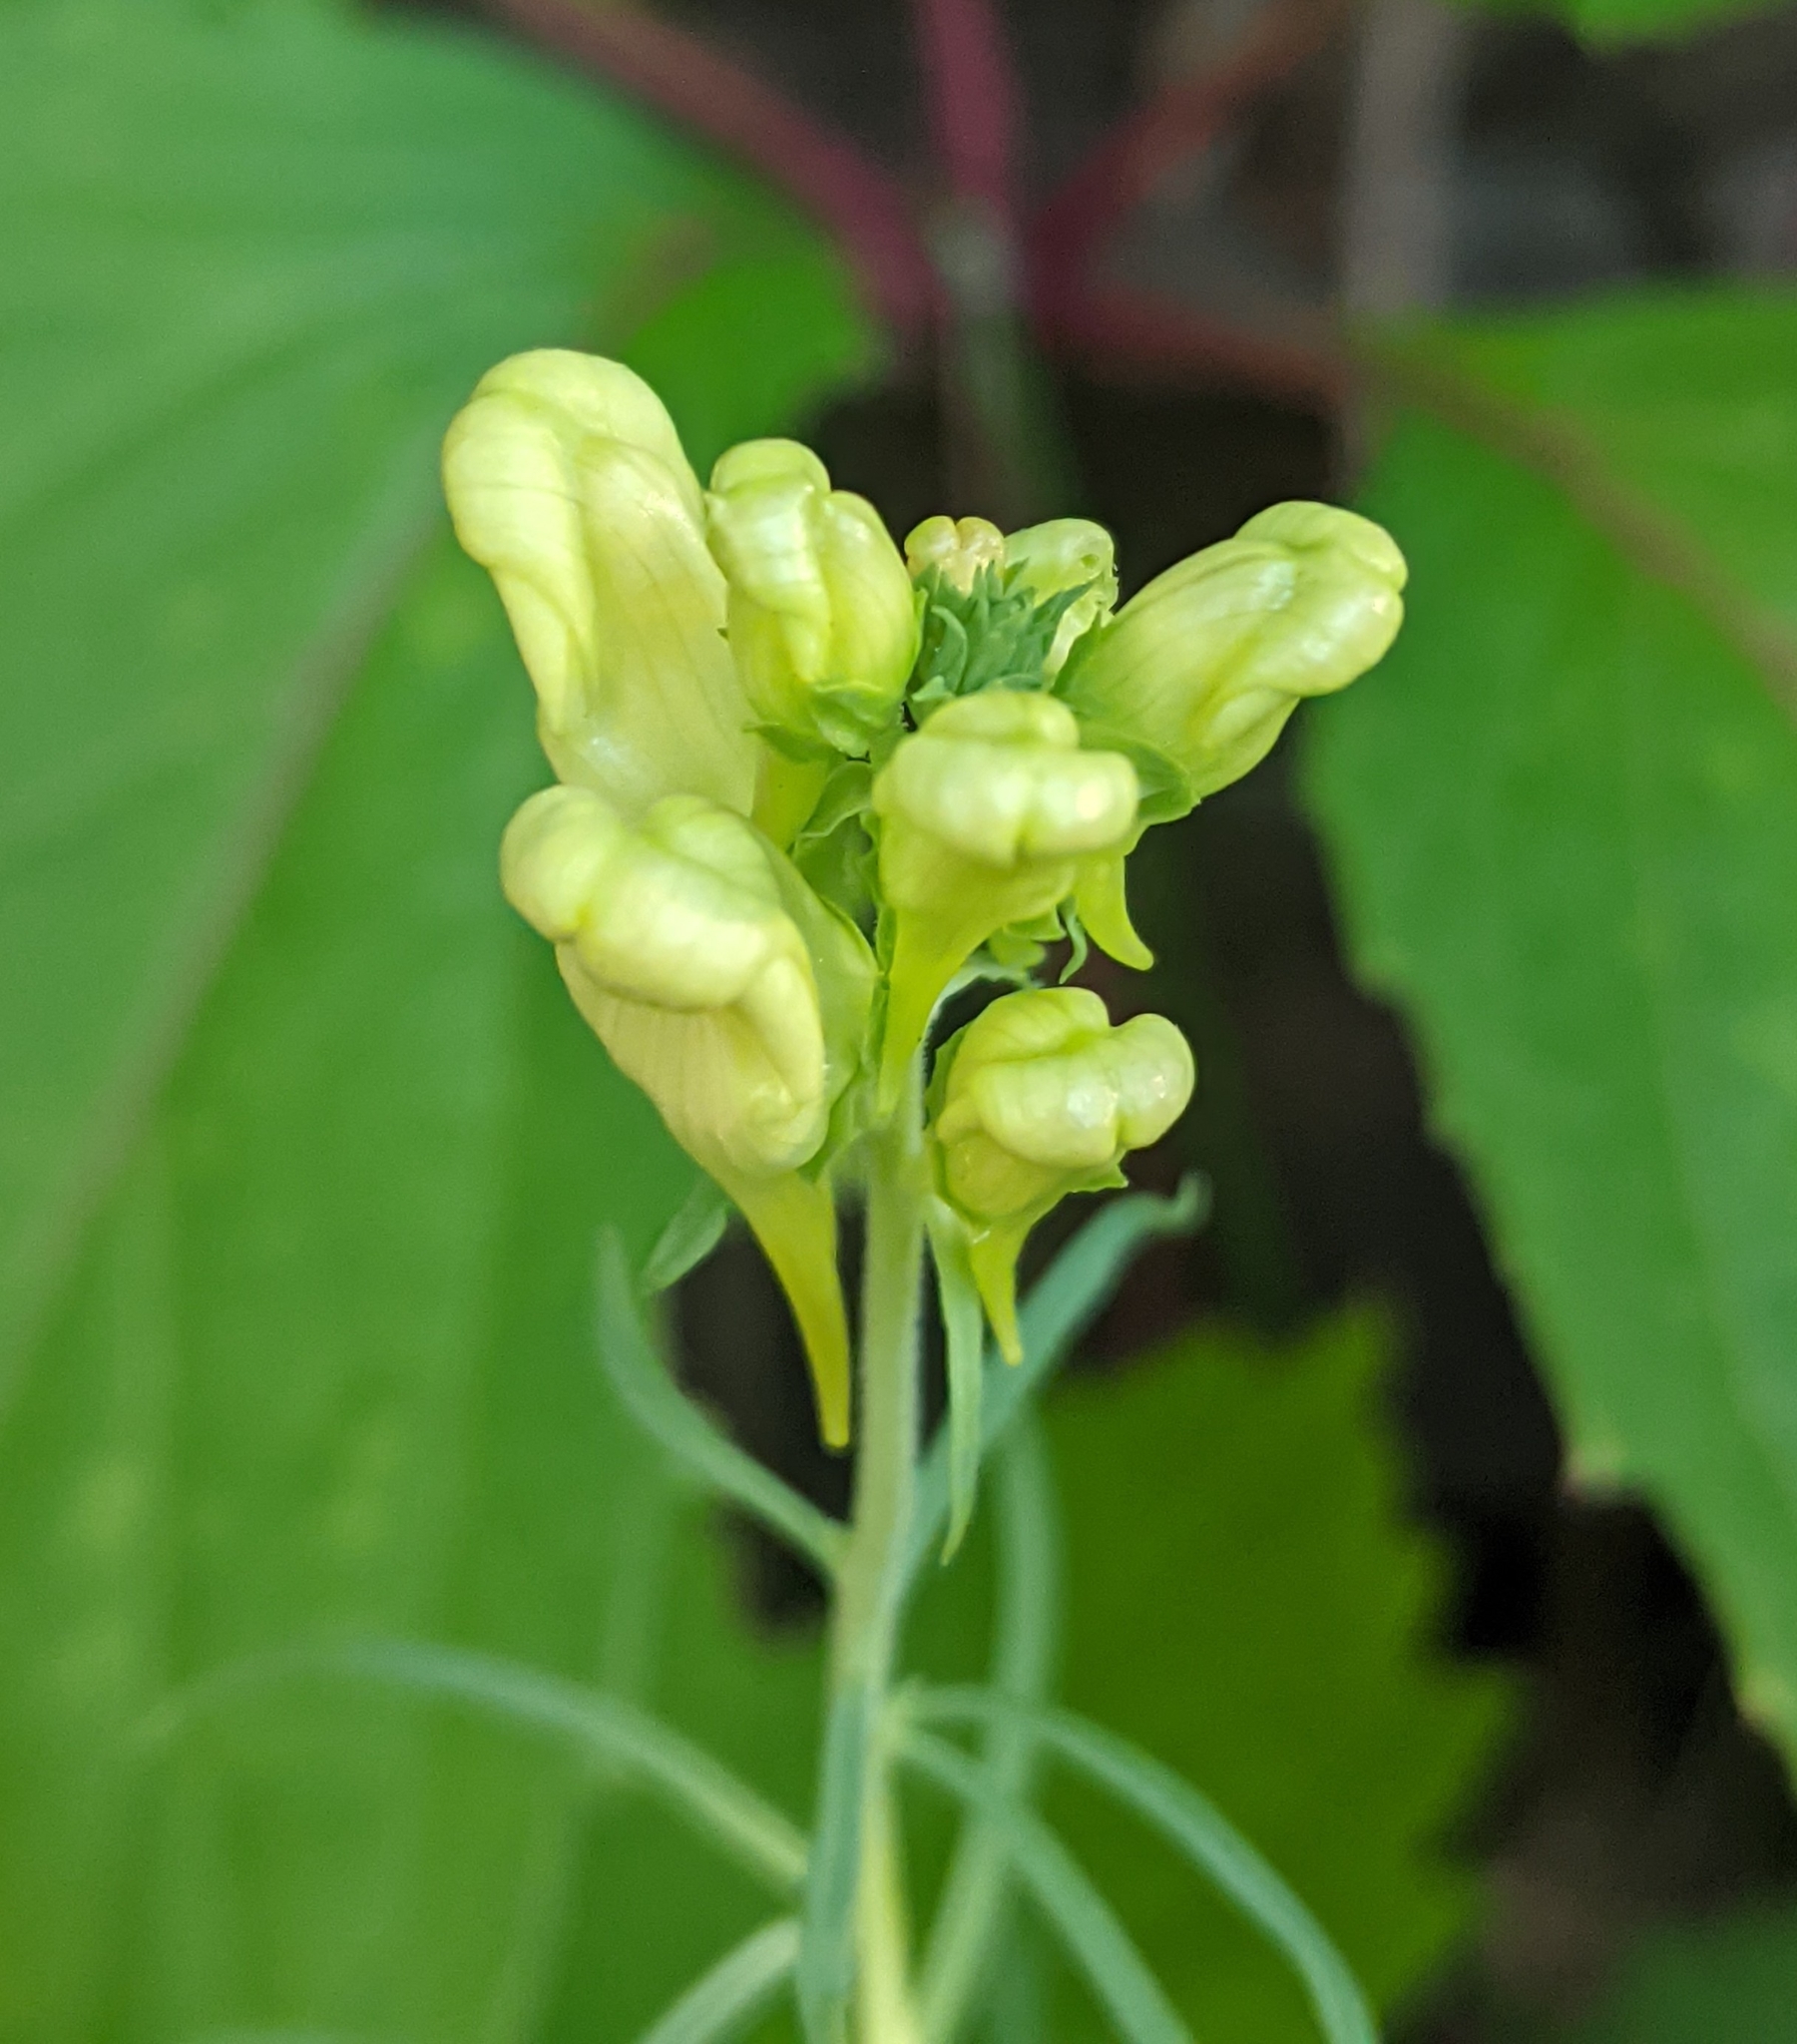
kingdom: Plantae
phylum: Tracheophyta
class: Magnoliopsida
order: Lamiales
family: Plantaginaceae
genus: Linaria
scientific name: Linaria vulgaris
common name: Butter and eggs
